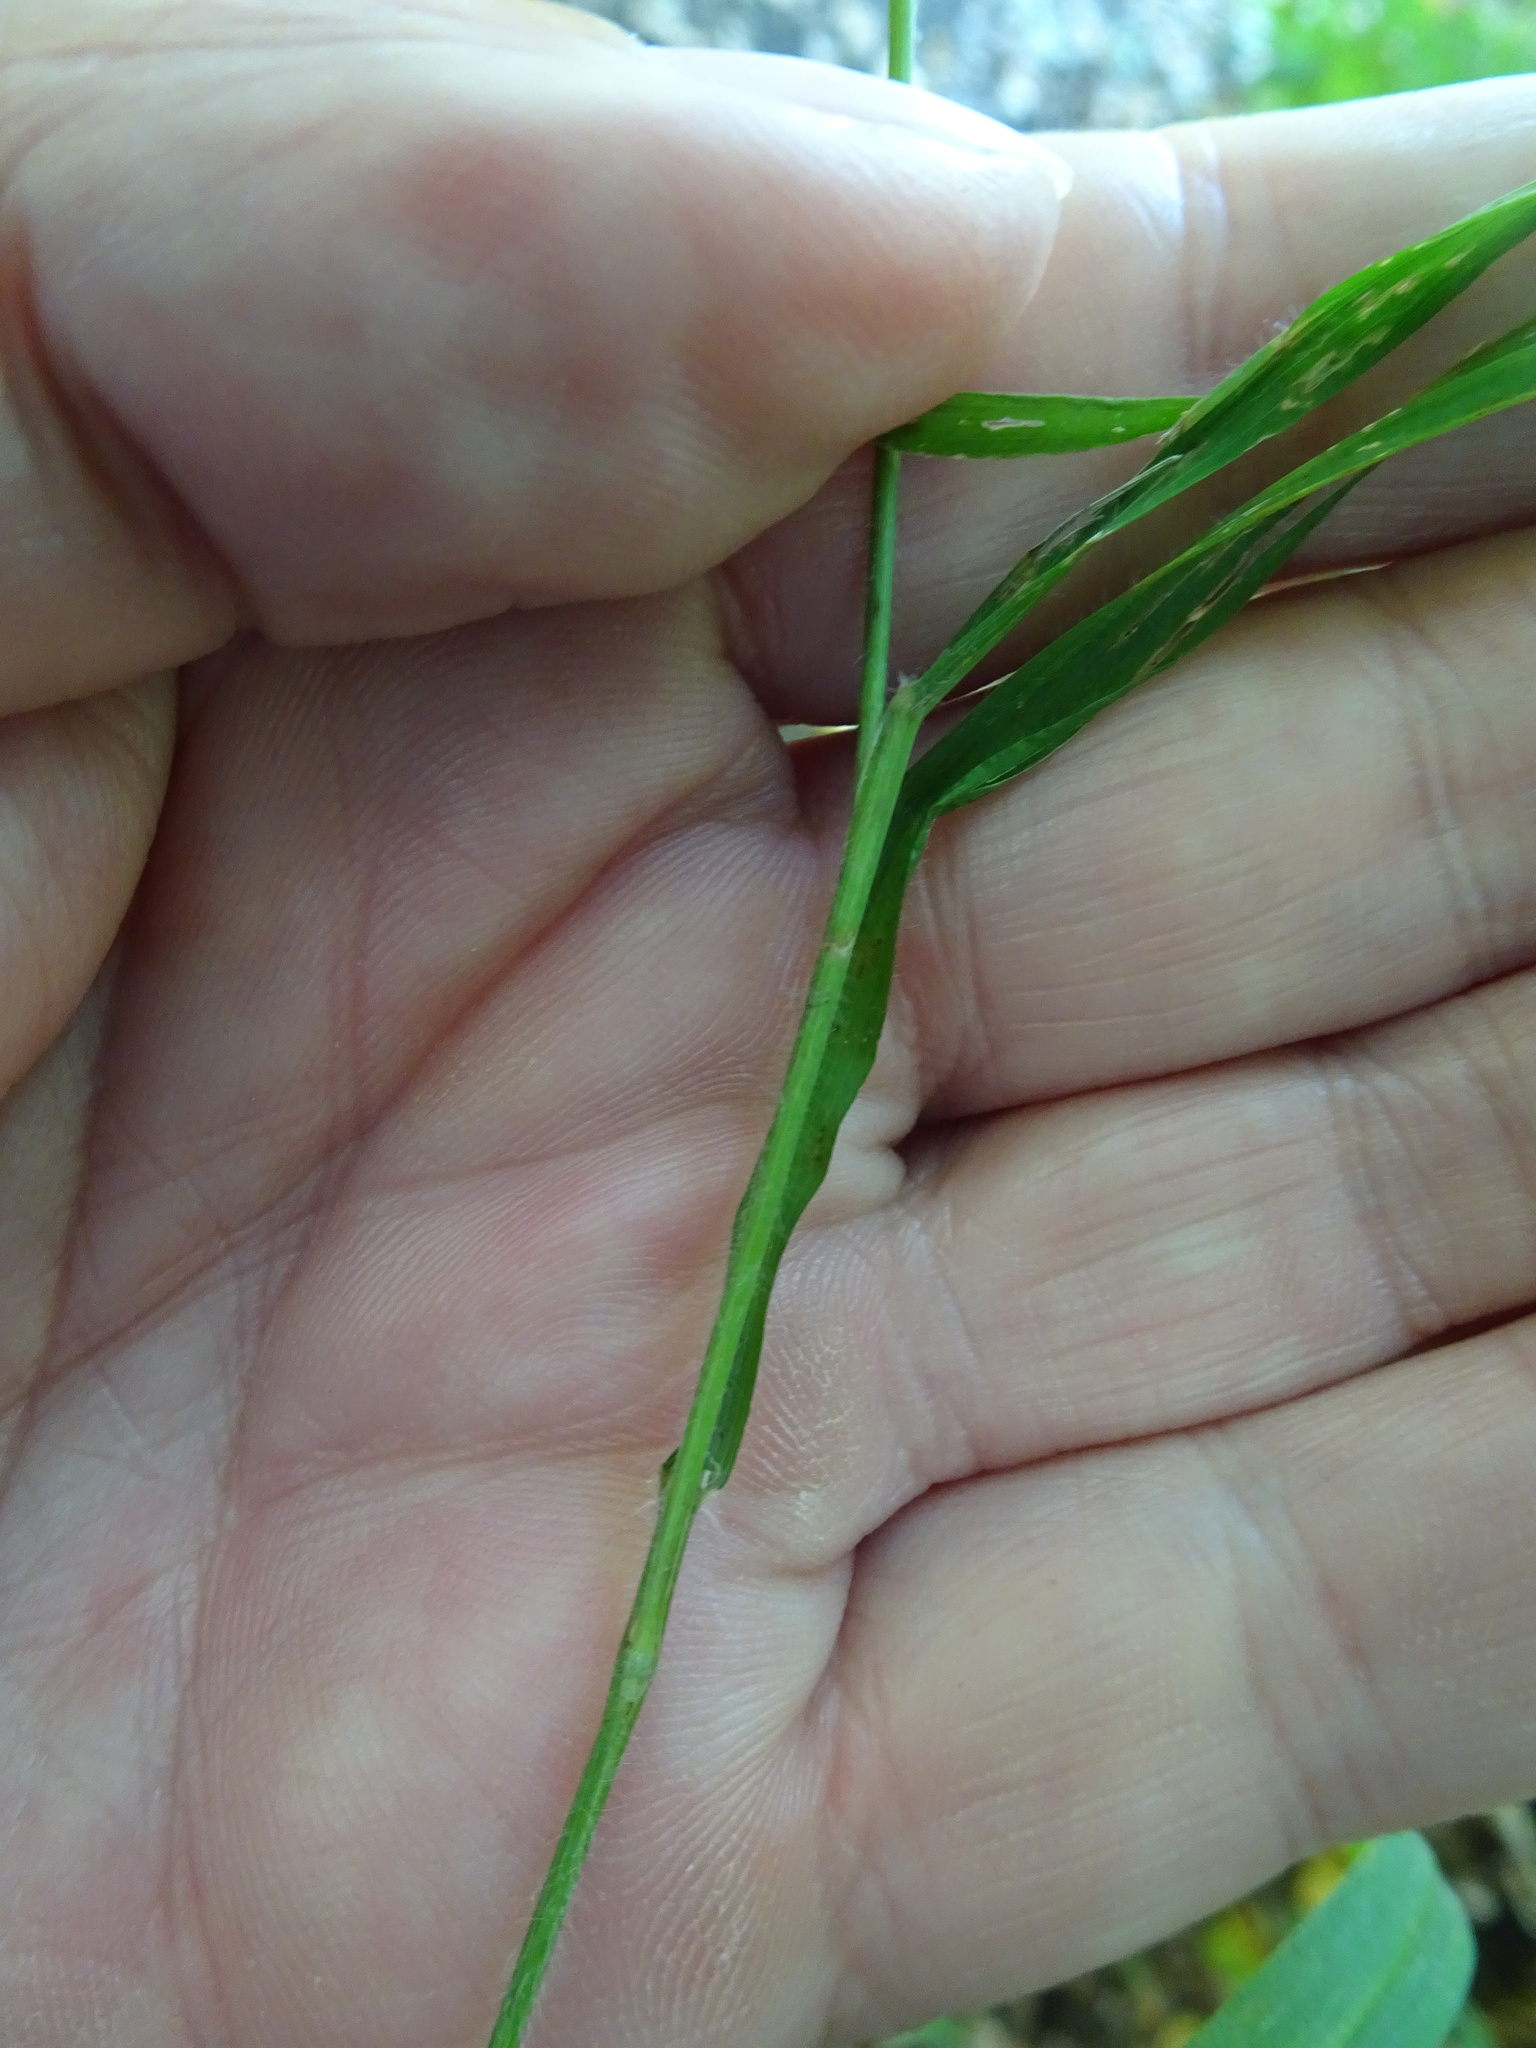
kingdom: Plantae
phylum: Tracheophyta
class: Liliopsida
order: Poales
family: Poaceae
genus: Brachypodium
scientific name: Brachypodium sylvaticum
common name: False-brome
